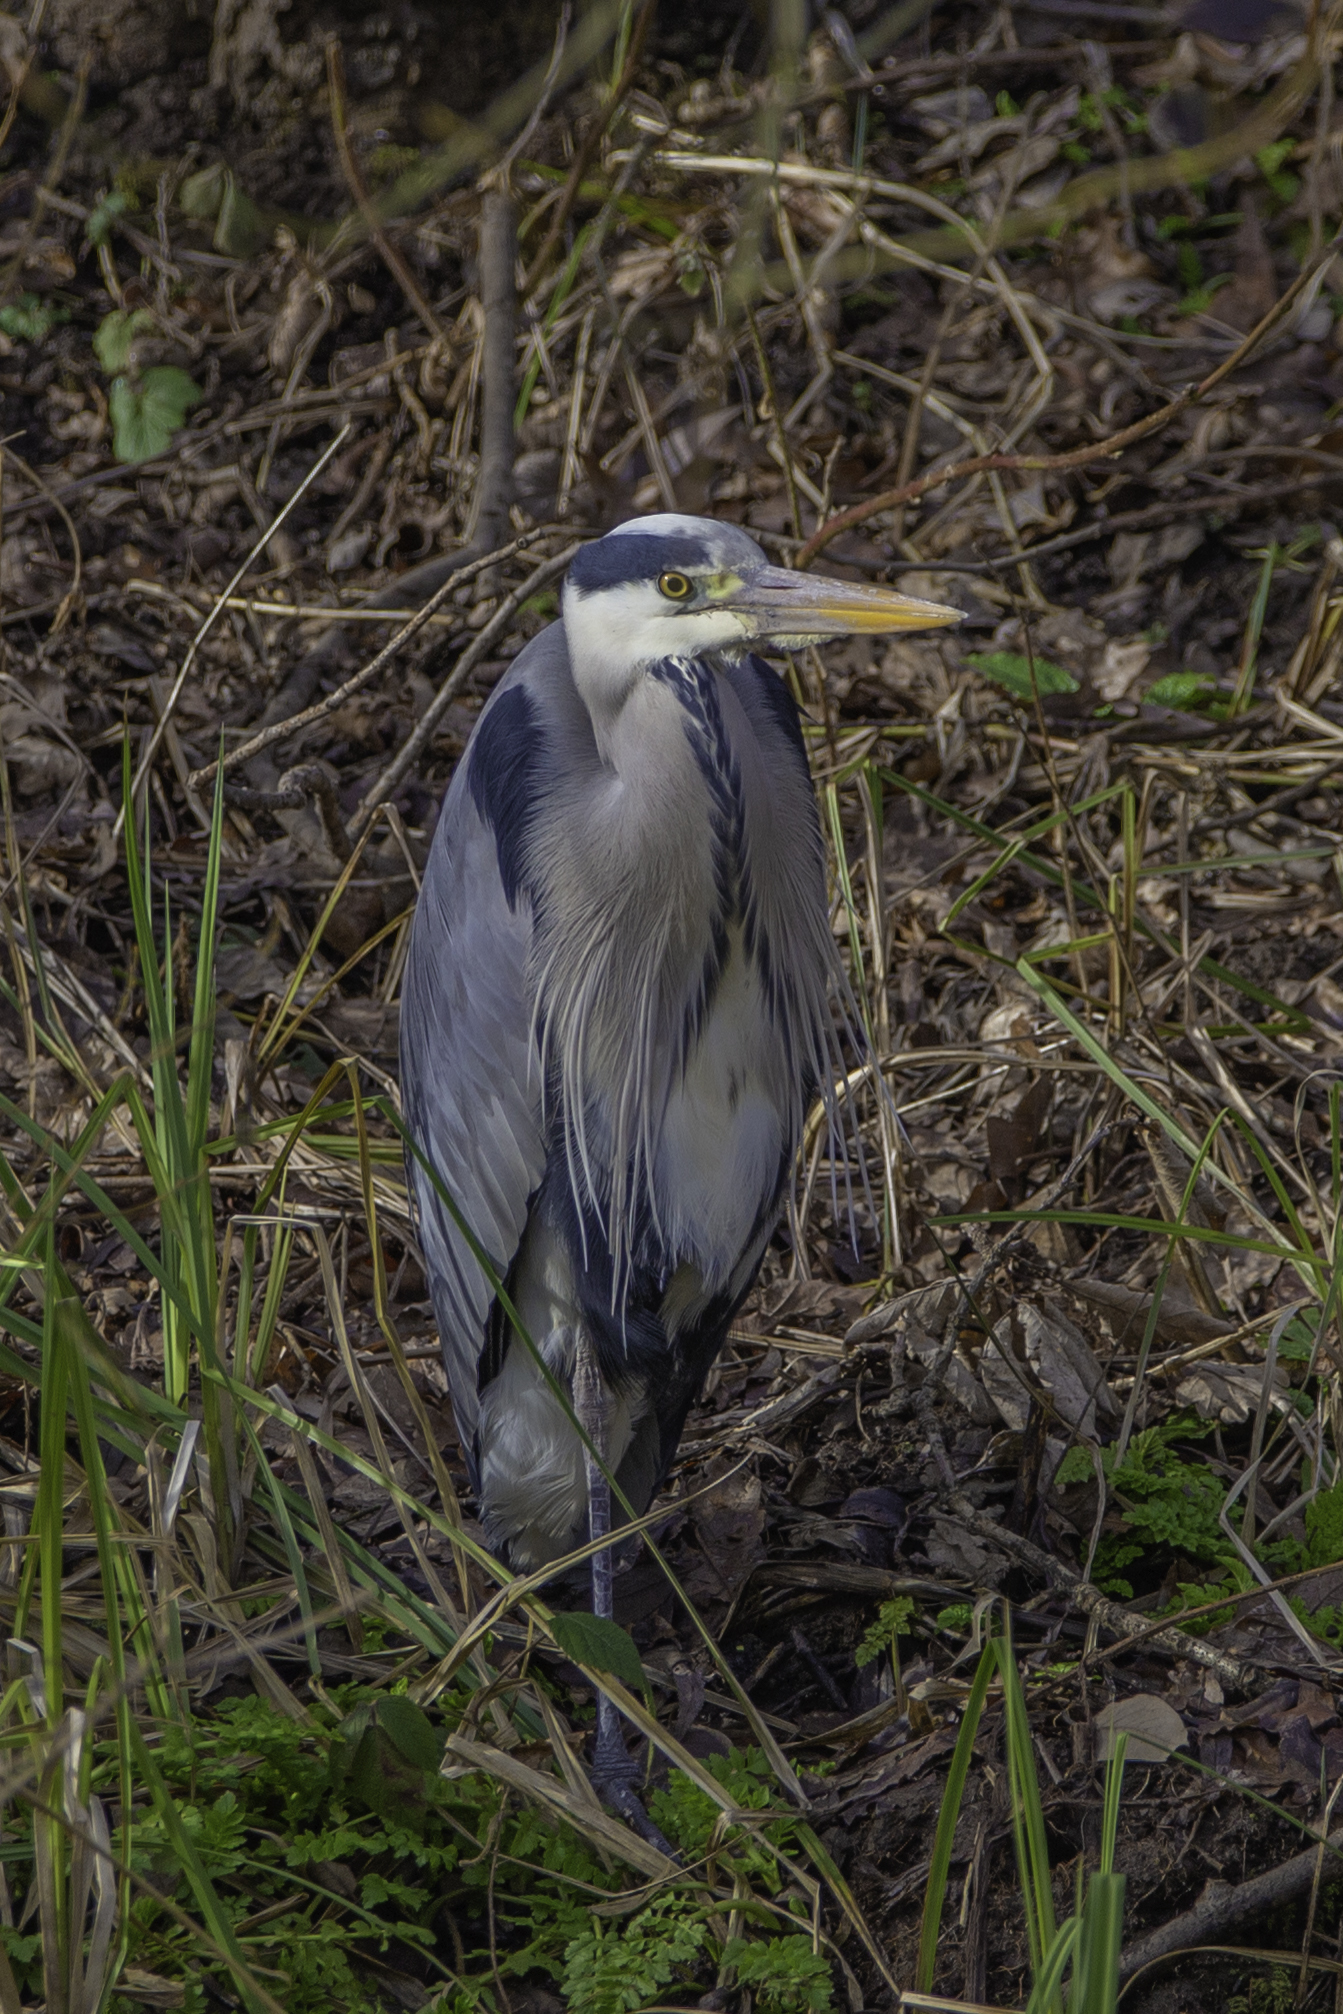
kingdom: Animalia
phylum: Chordata
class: Aves
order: Pelecaniformes
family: Ardeidae
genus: Ardea
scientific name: Ardea cinerea
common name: Grey heron
